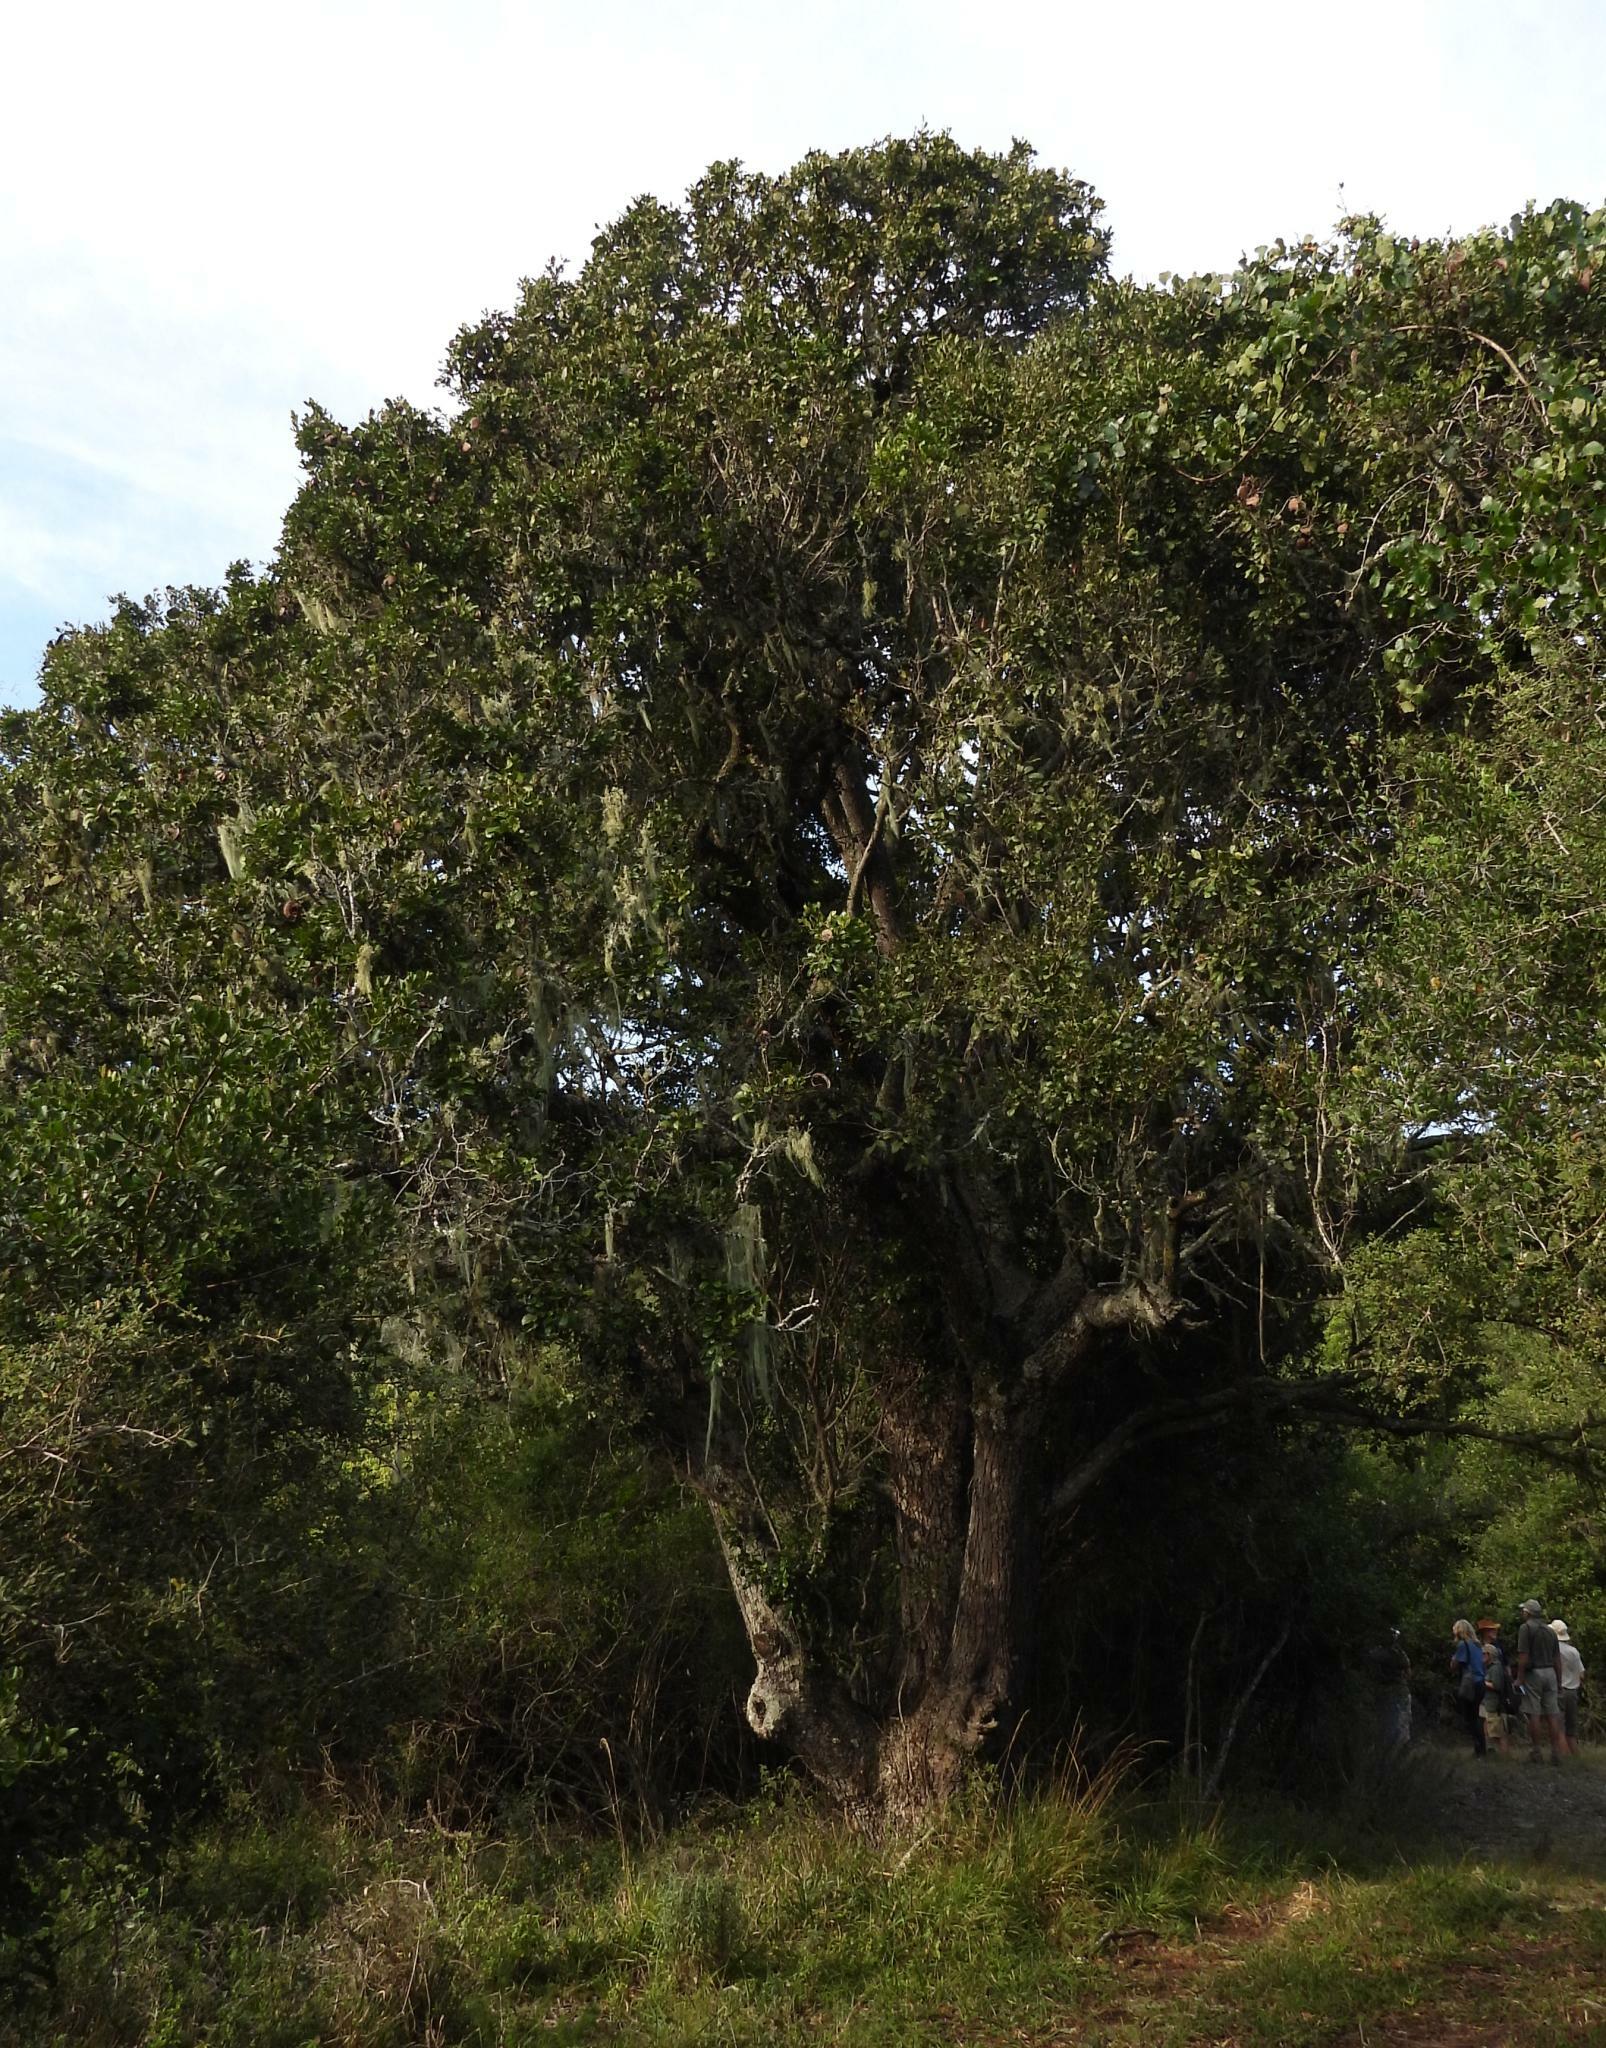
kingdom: Plantae
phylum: Tracheophyta
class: Magnoliopsida
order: Fabales
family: Fabaceae
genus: Schotia
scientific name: Schotia latifolia
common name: Bush boer-bean
